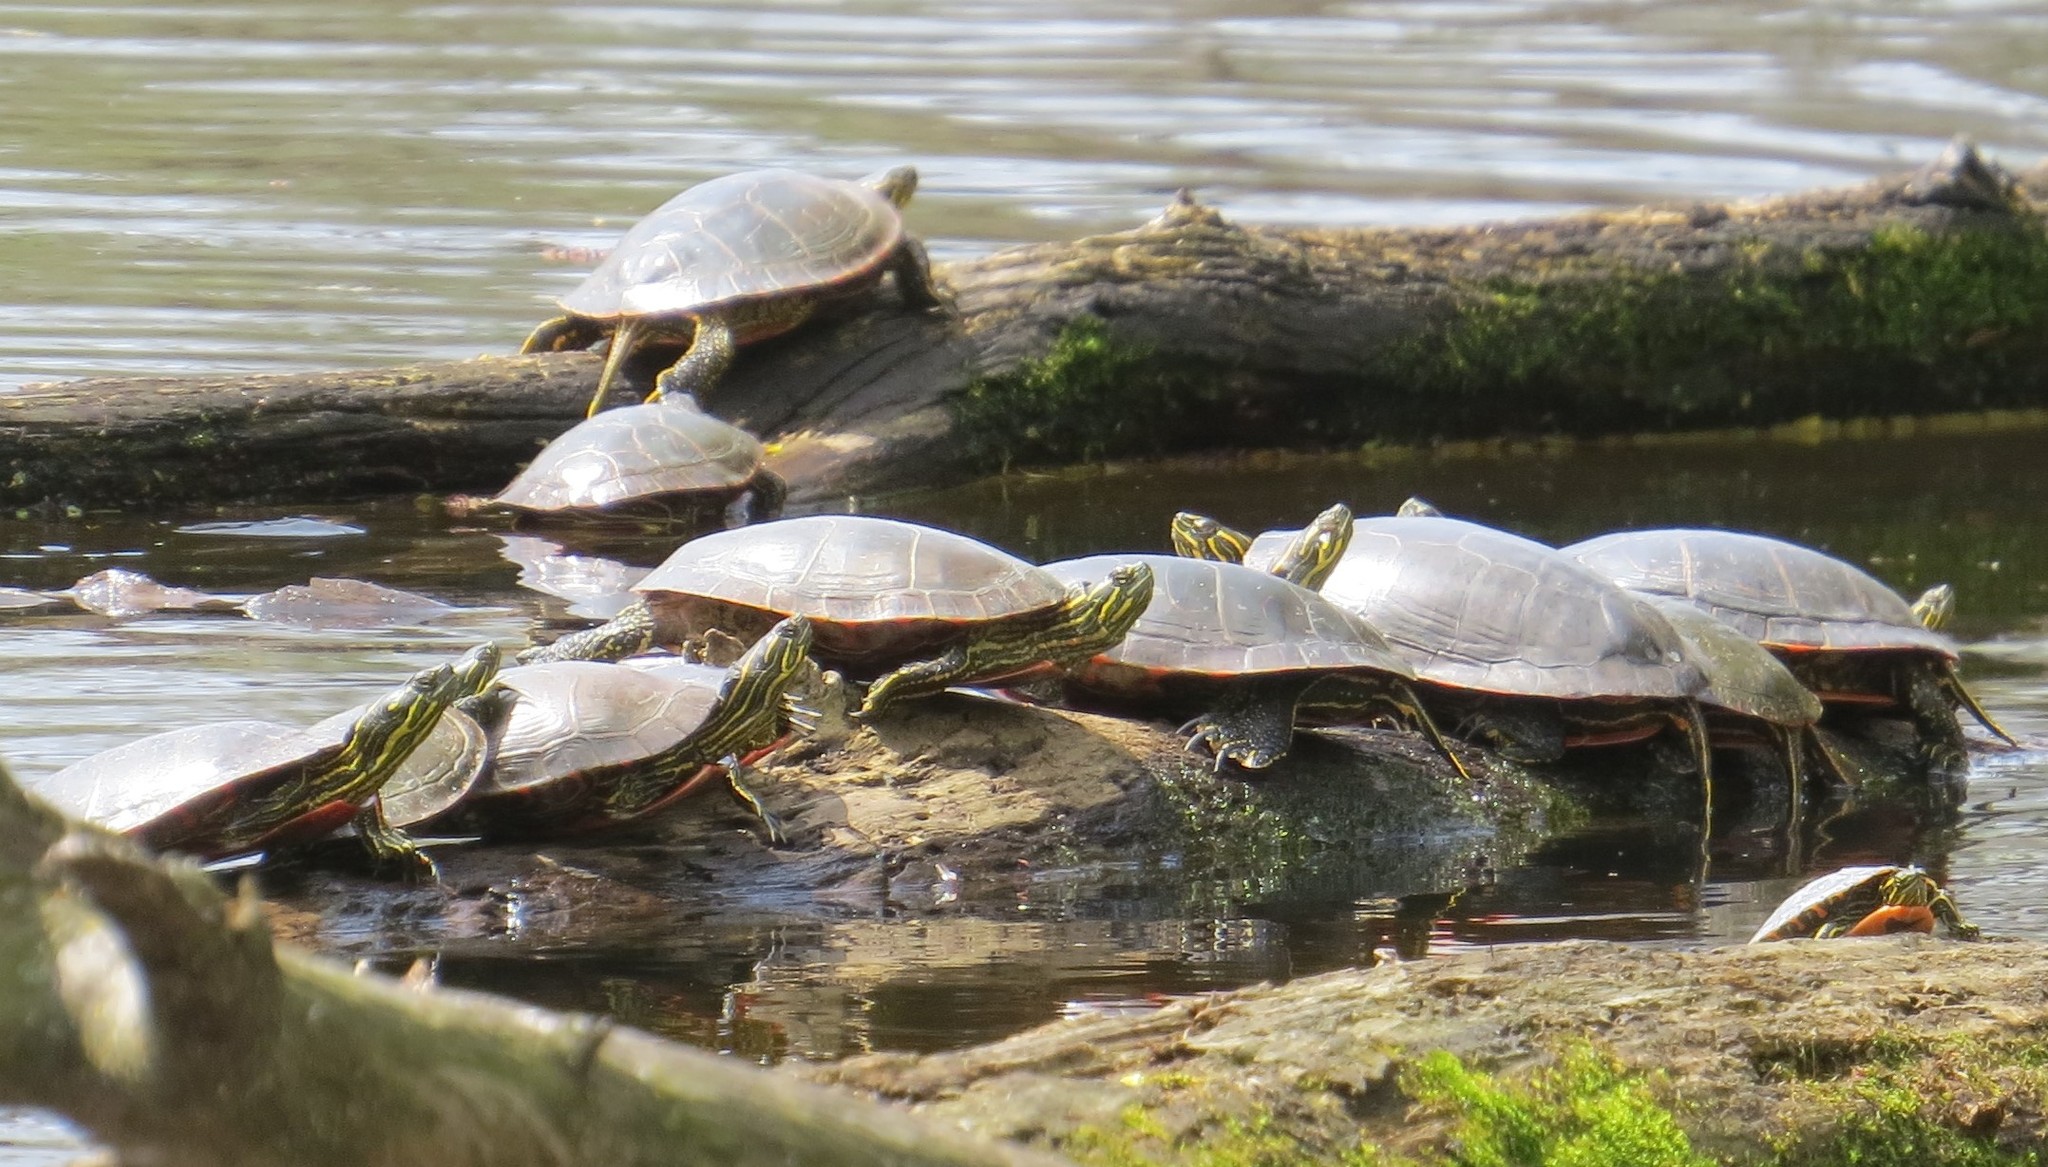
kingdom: Animalia
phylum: Chordata
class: Testudines
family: Emydidae
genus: Chrysemys
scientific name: Chrysemys picta
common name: Painted turtle
